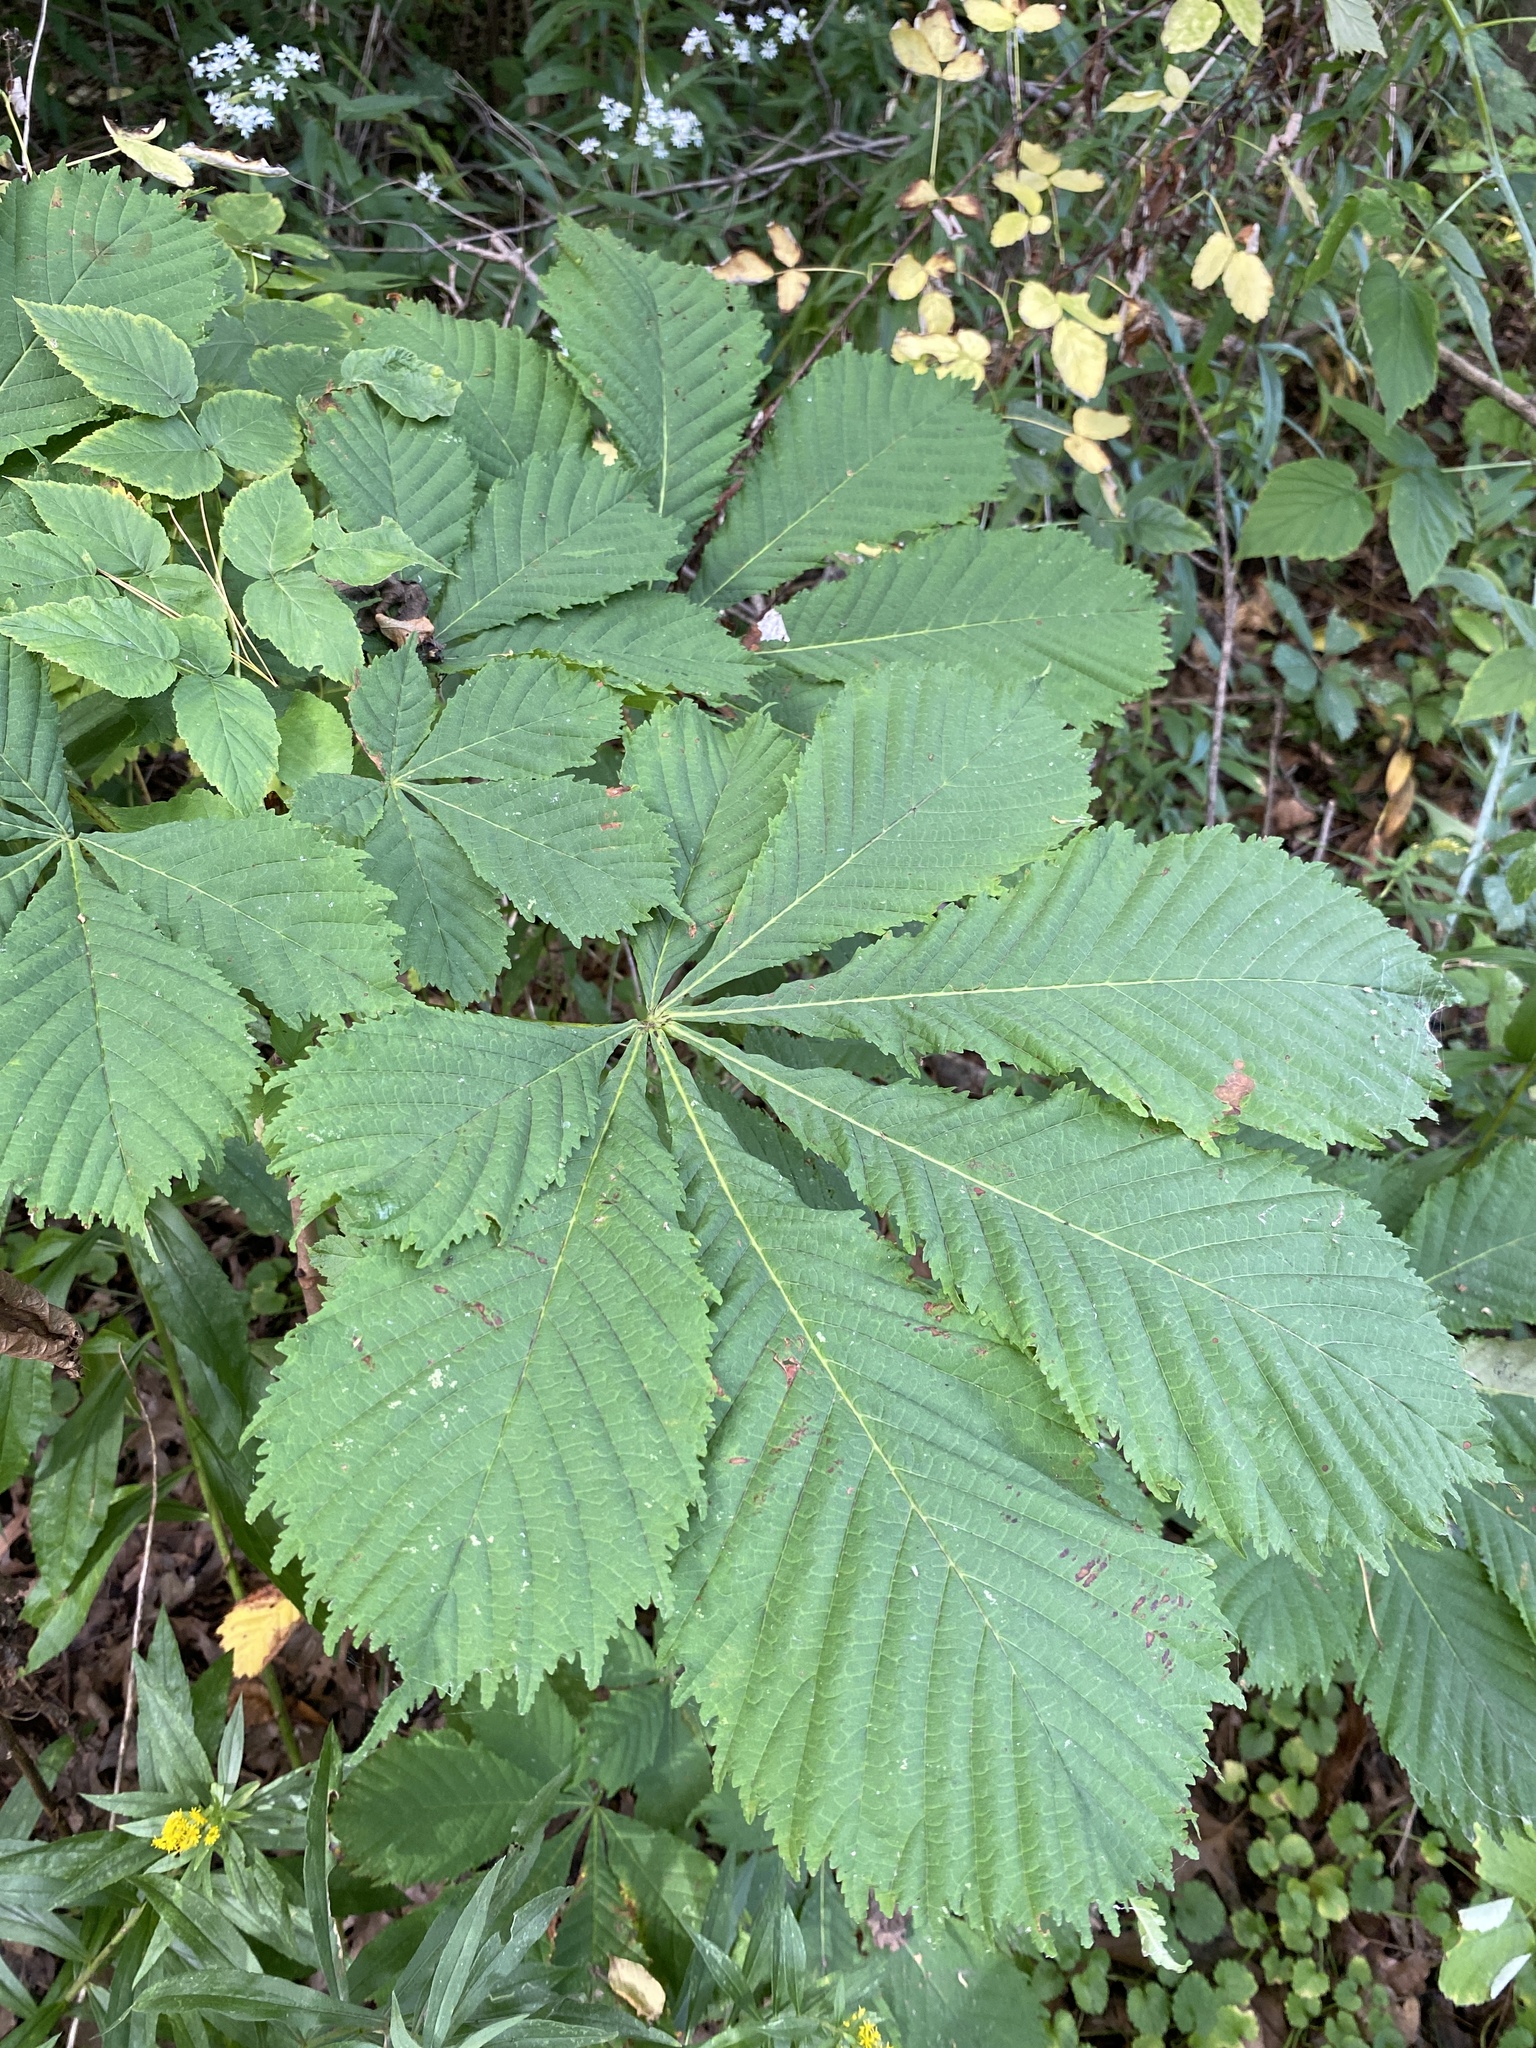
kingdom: Plantae
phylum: Tracheophyta
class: Magnoliopsida
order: Sapindales
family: Sapindaceae
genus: Aesculus
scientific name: Aesculus hippocastanum
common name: Horse-chestnut
